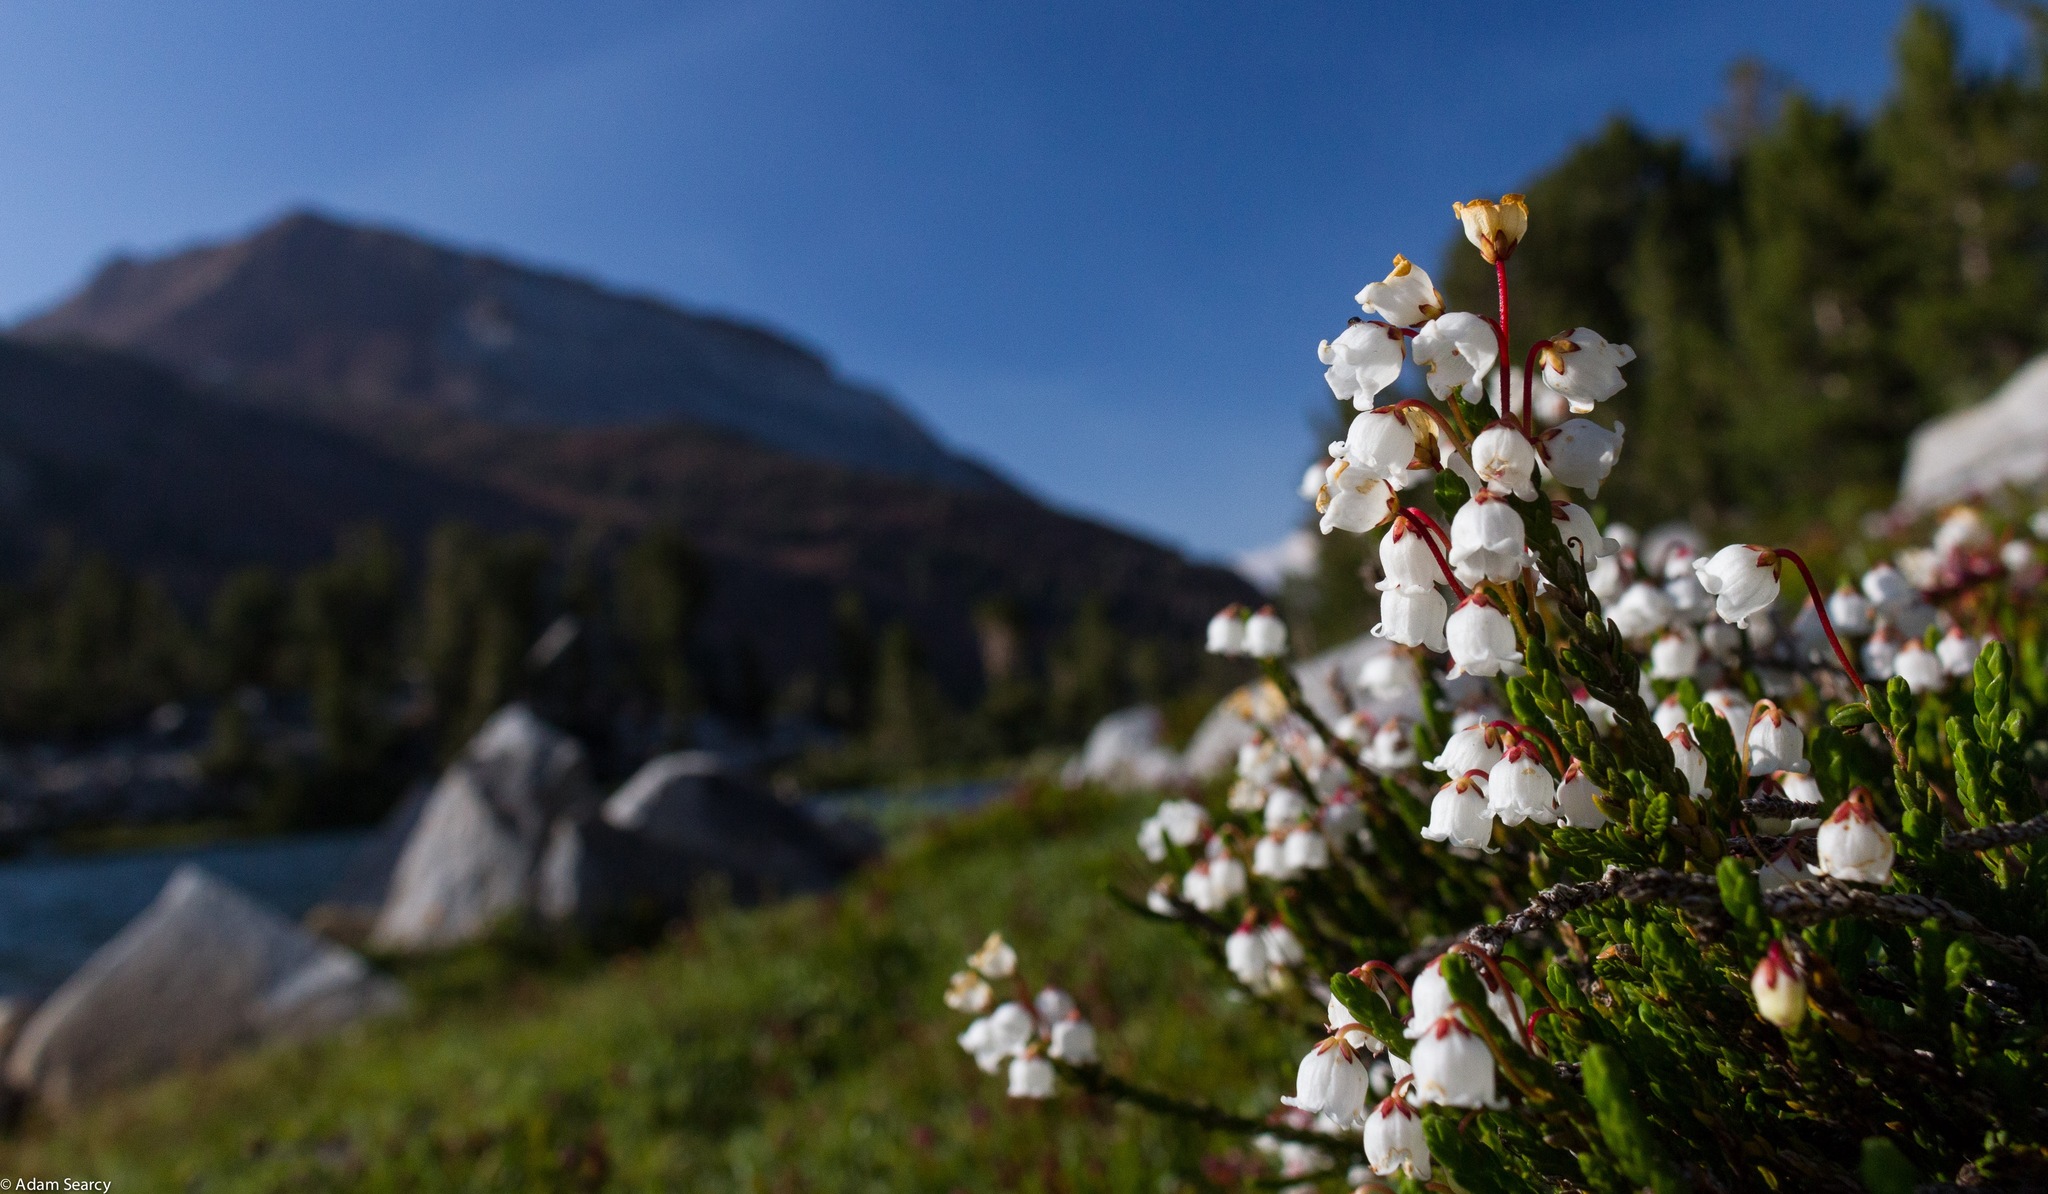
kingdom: Plantae
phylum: Tracheophyta
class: Magnoliopsida
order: Ericales
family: Ericaceae
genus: Cassiope
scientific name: Cassiope mertensiana
